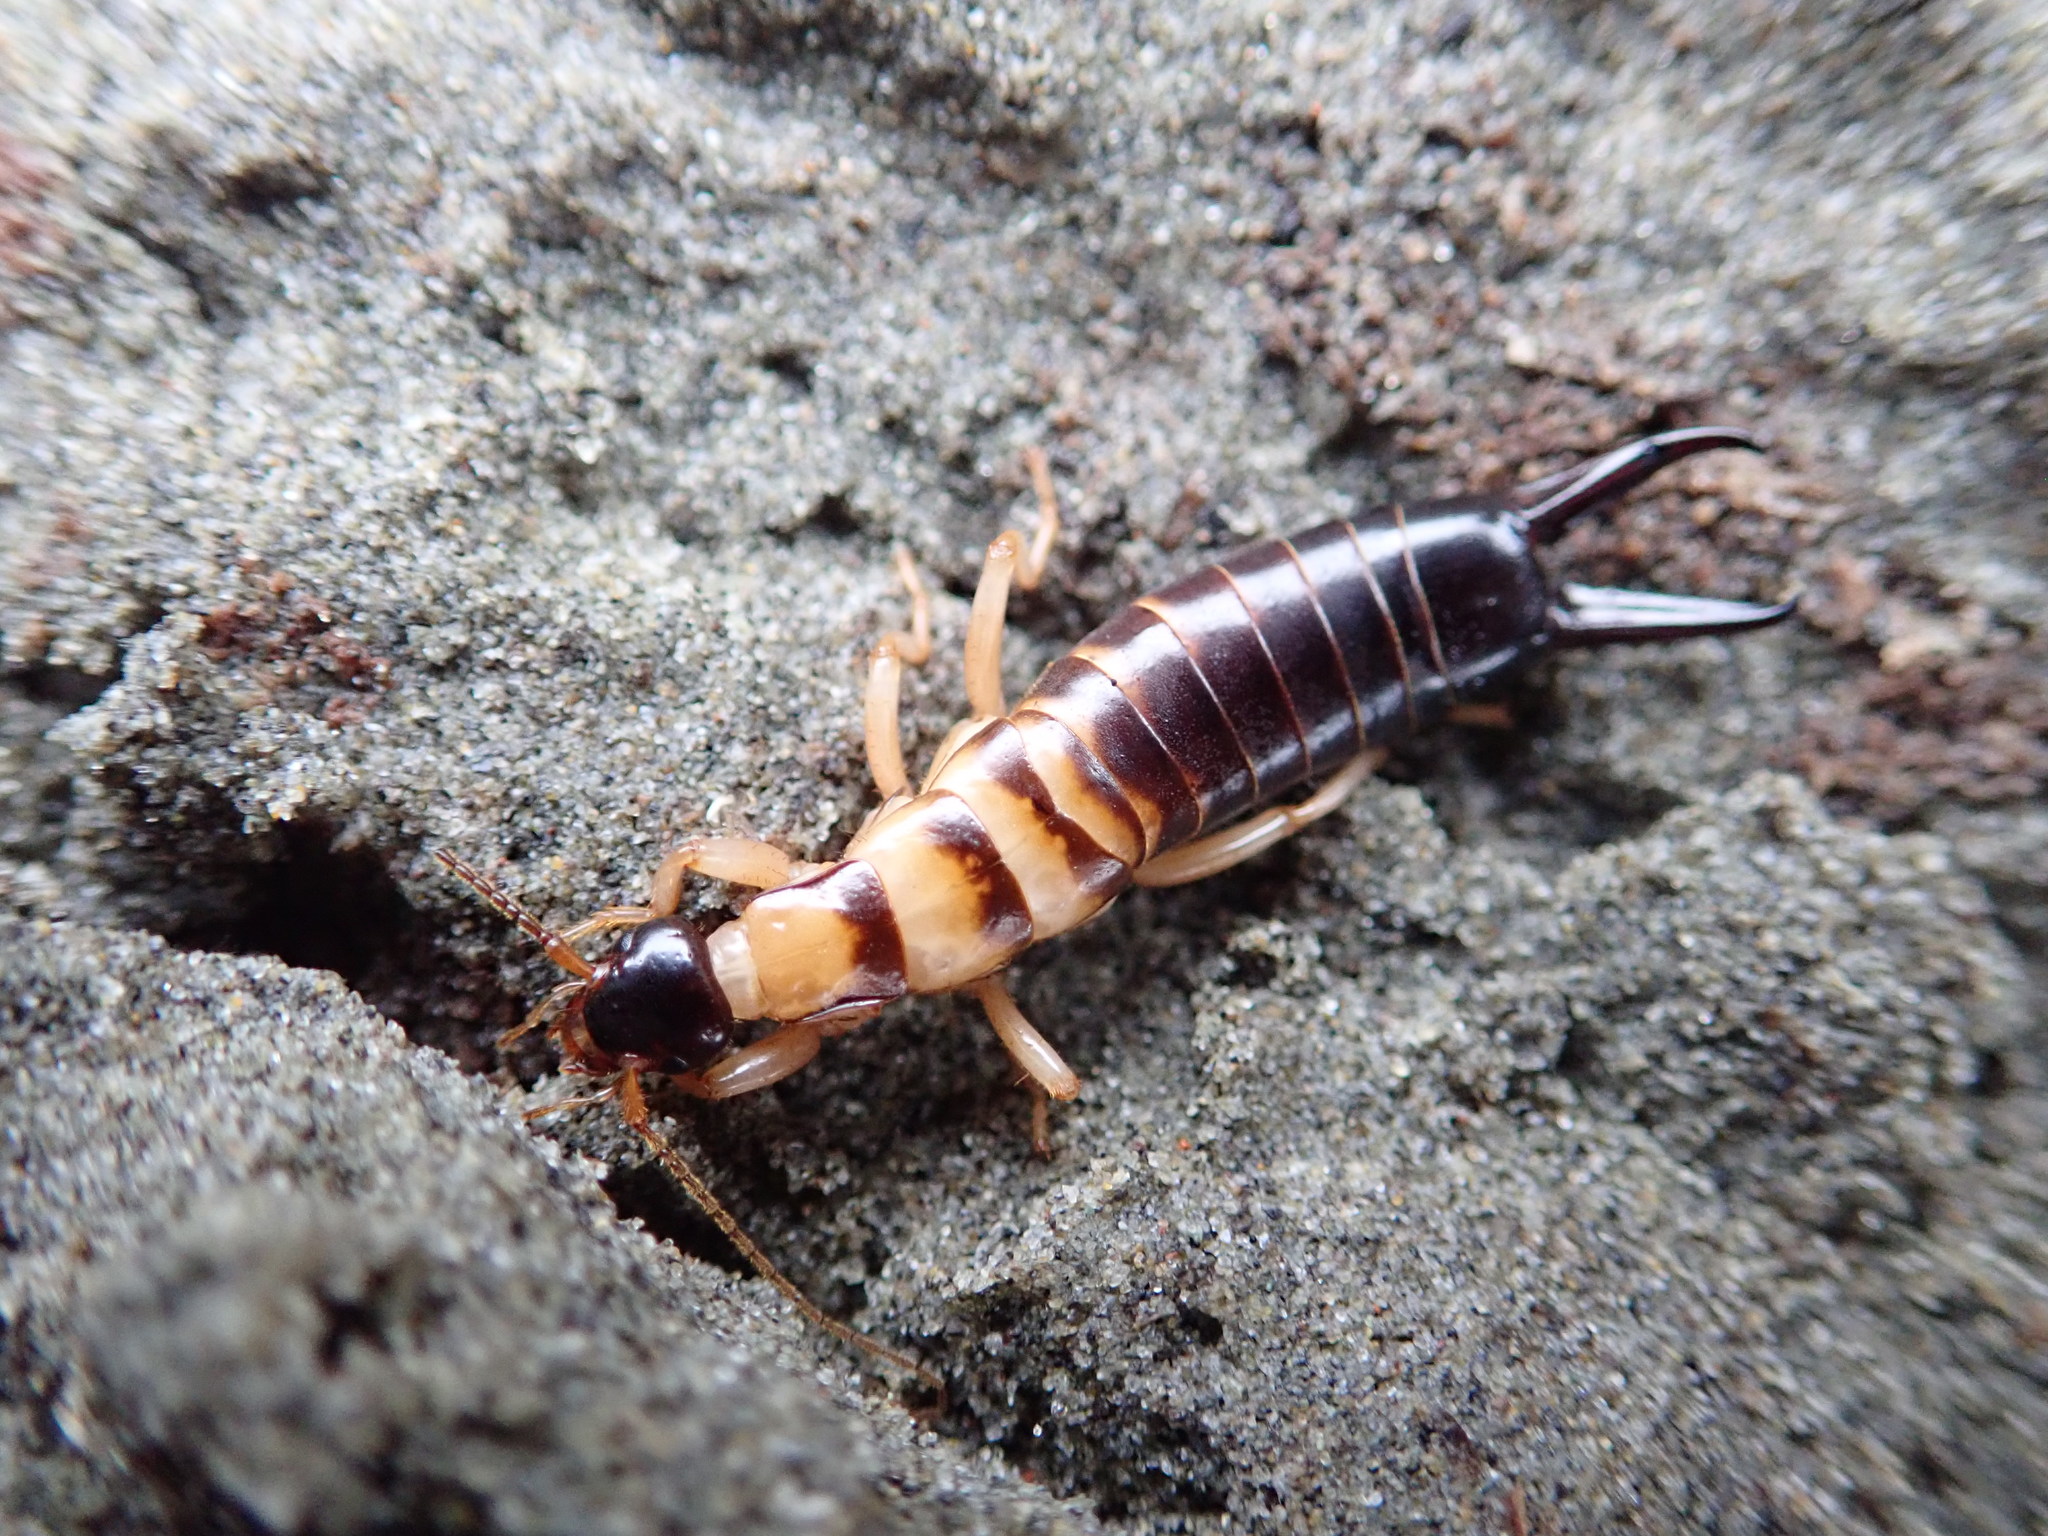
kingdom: Animalia
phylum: Arthropoda
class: Insecta
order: Dermaptera
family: Anisolabididae
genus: Anisolabis
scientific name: Anisolabis littorea
